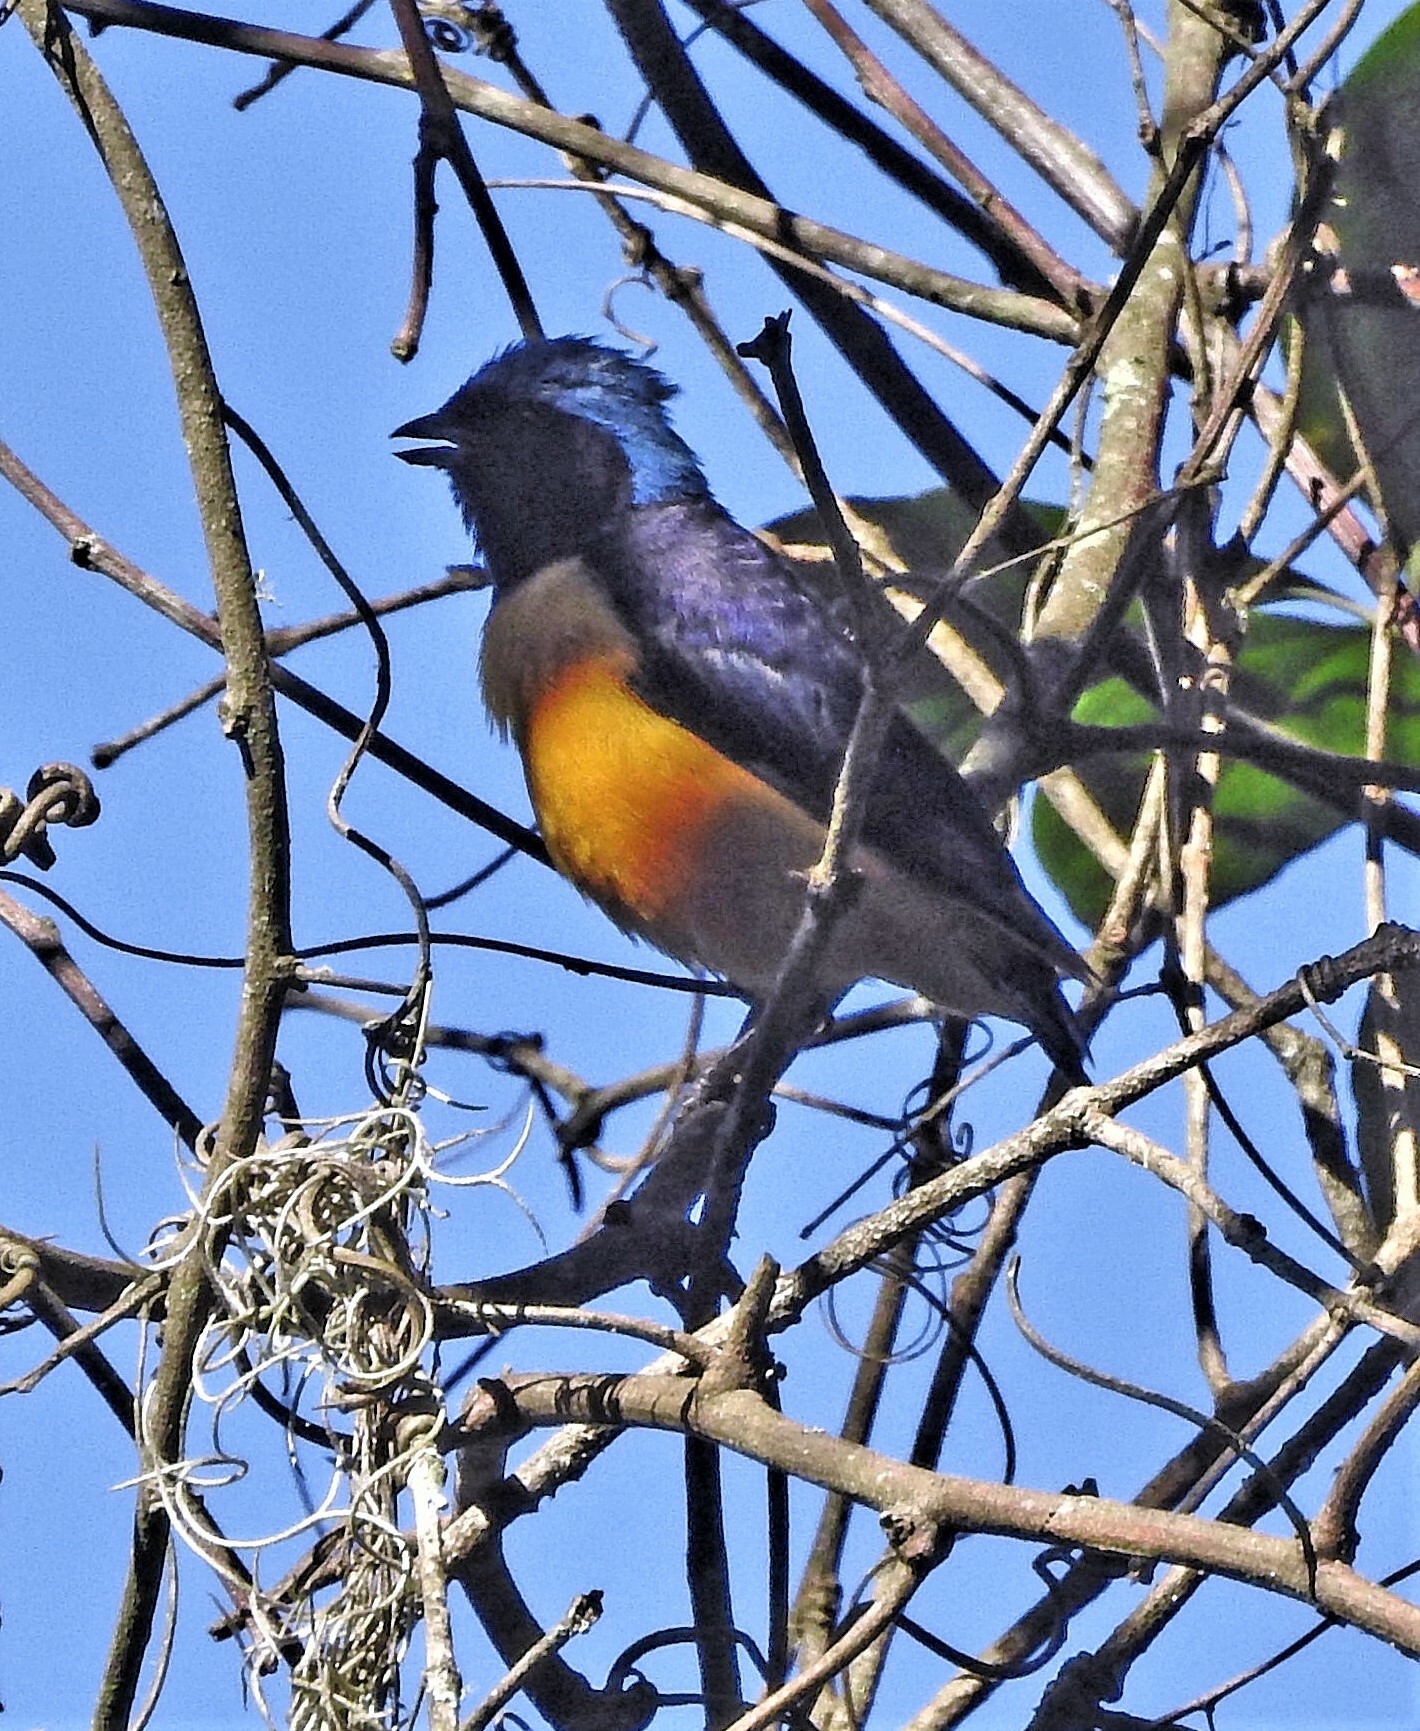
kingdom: Animalia
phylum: Chordata
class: Aves
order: Passeriformes
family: Fringillidae
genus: Euphonia
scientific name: Euphonia cyanocephala
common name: Golden-rumped euphonia
